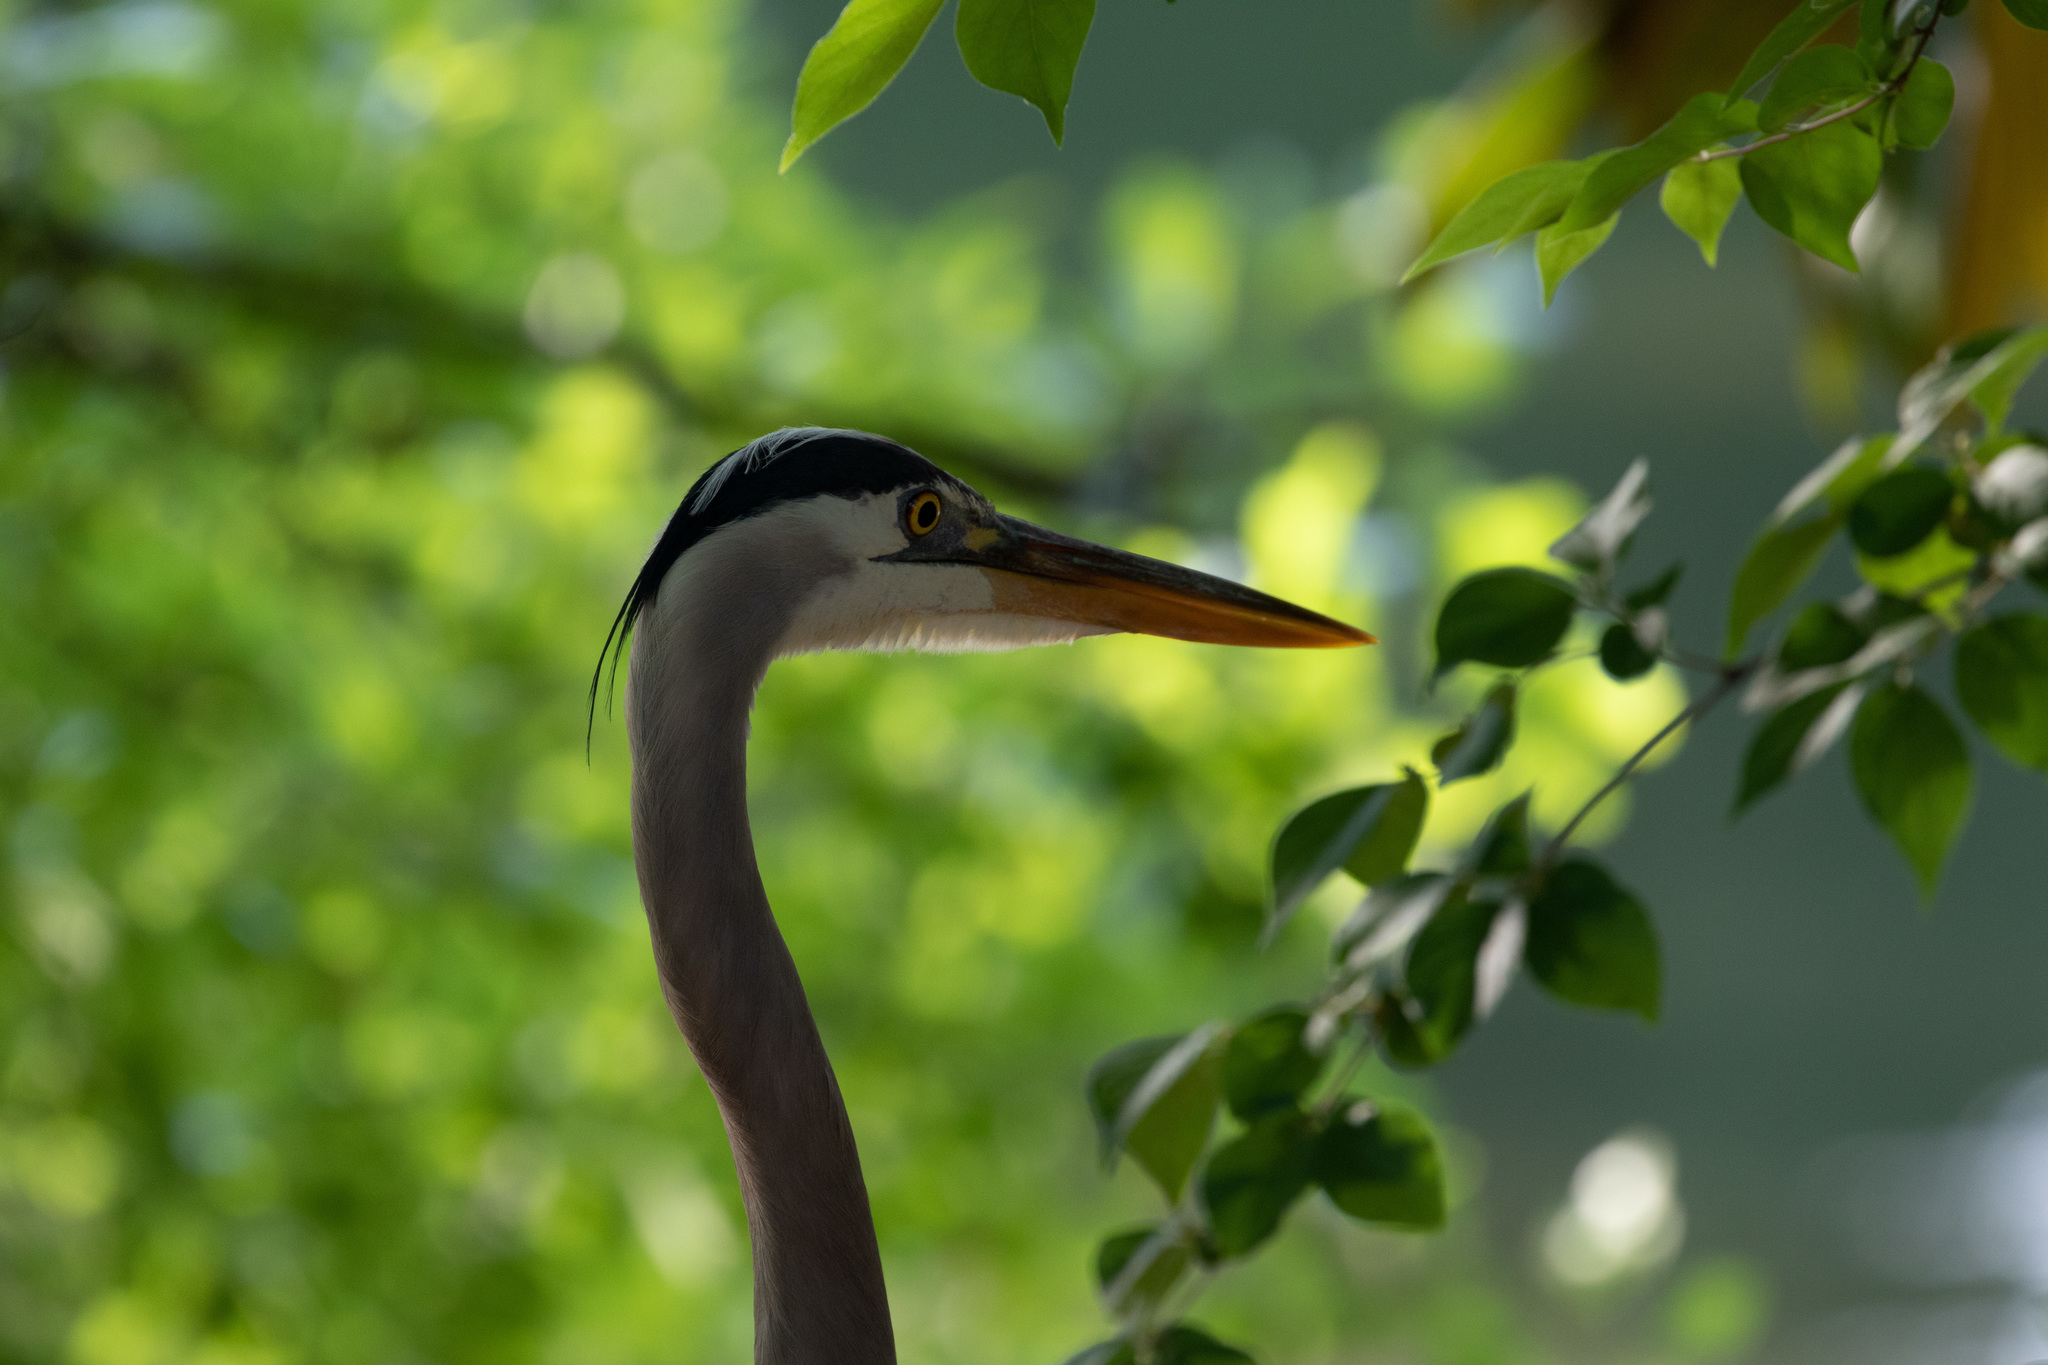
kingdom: Animalia
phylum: Chordata
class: Aves
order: Pelecaniformes
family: Ardeidae
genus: Ardea
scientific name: Ardea herodias
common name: Great blue heron
